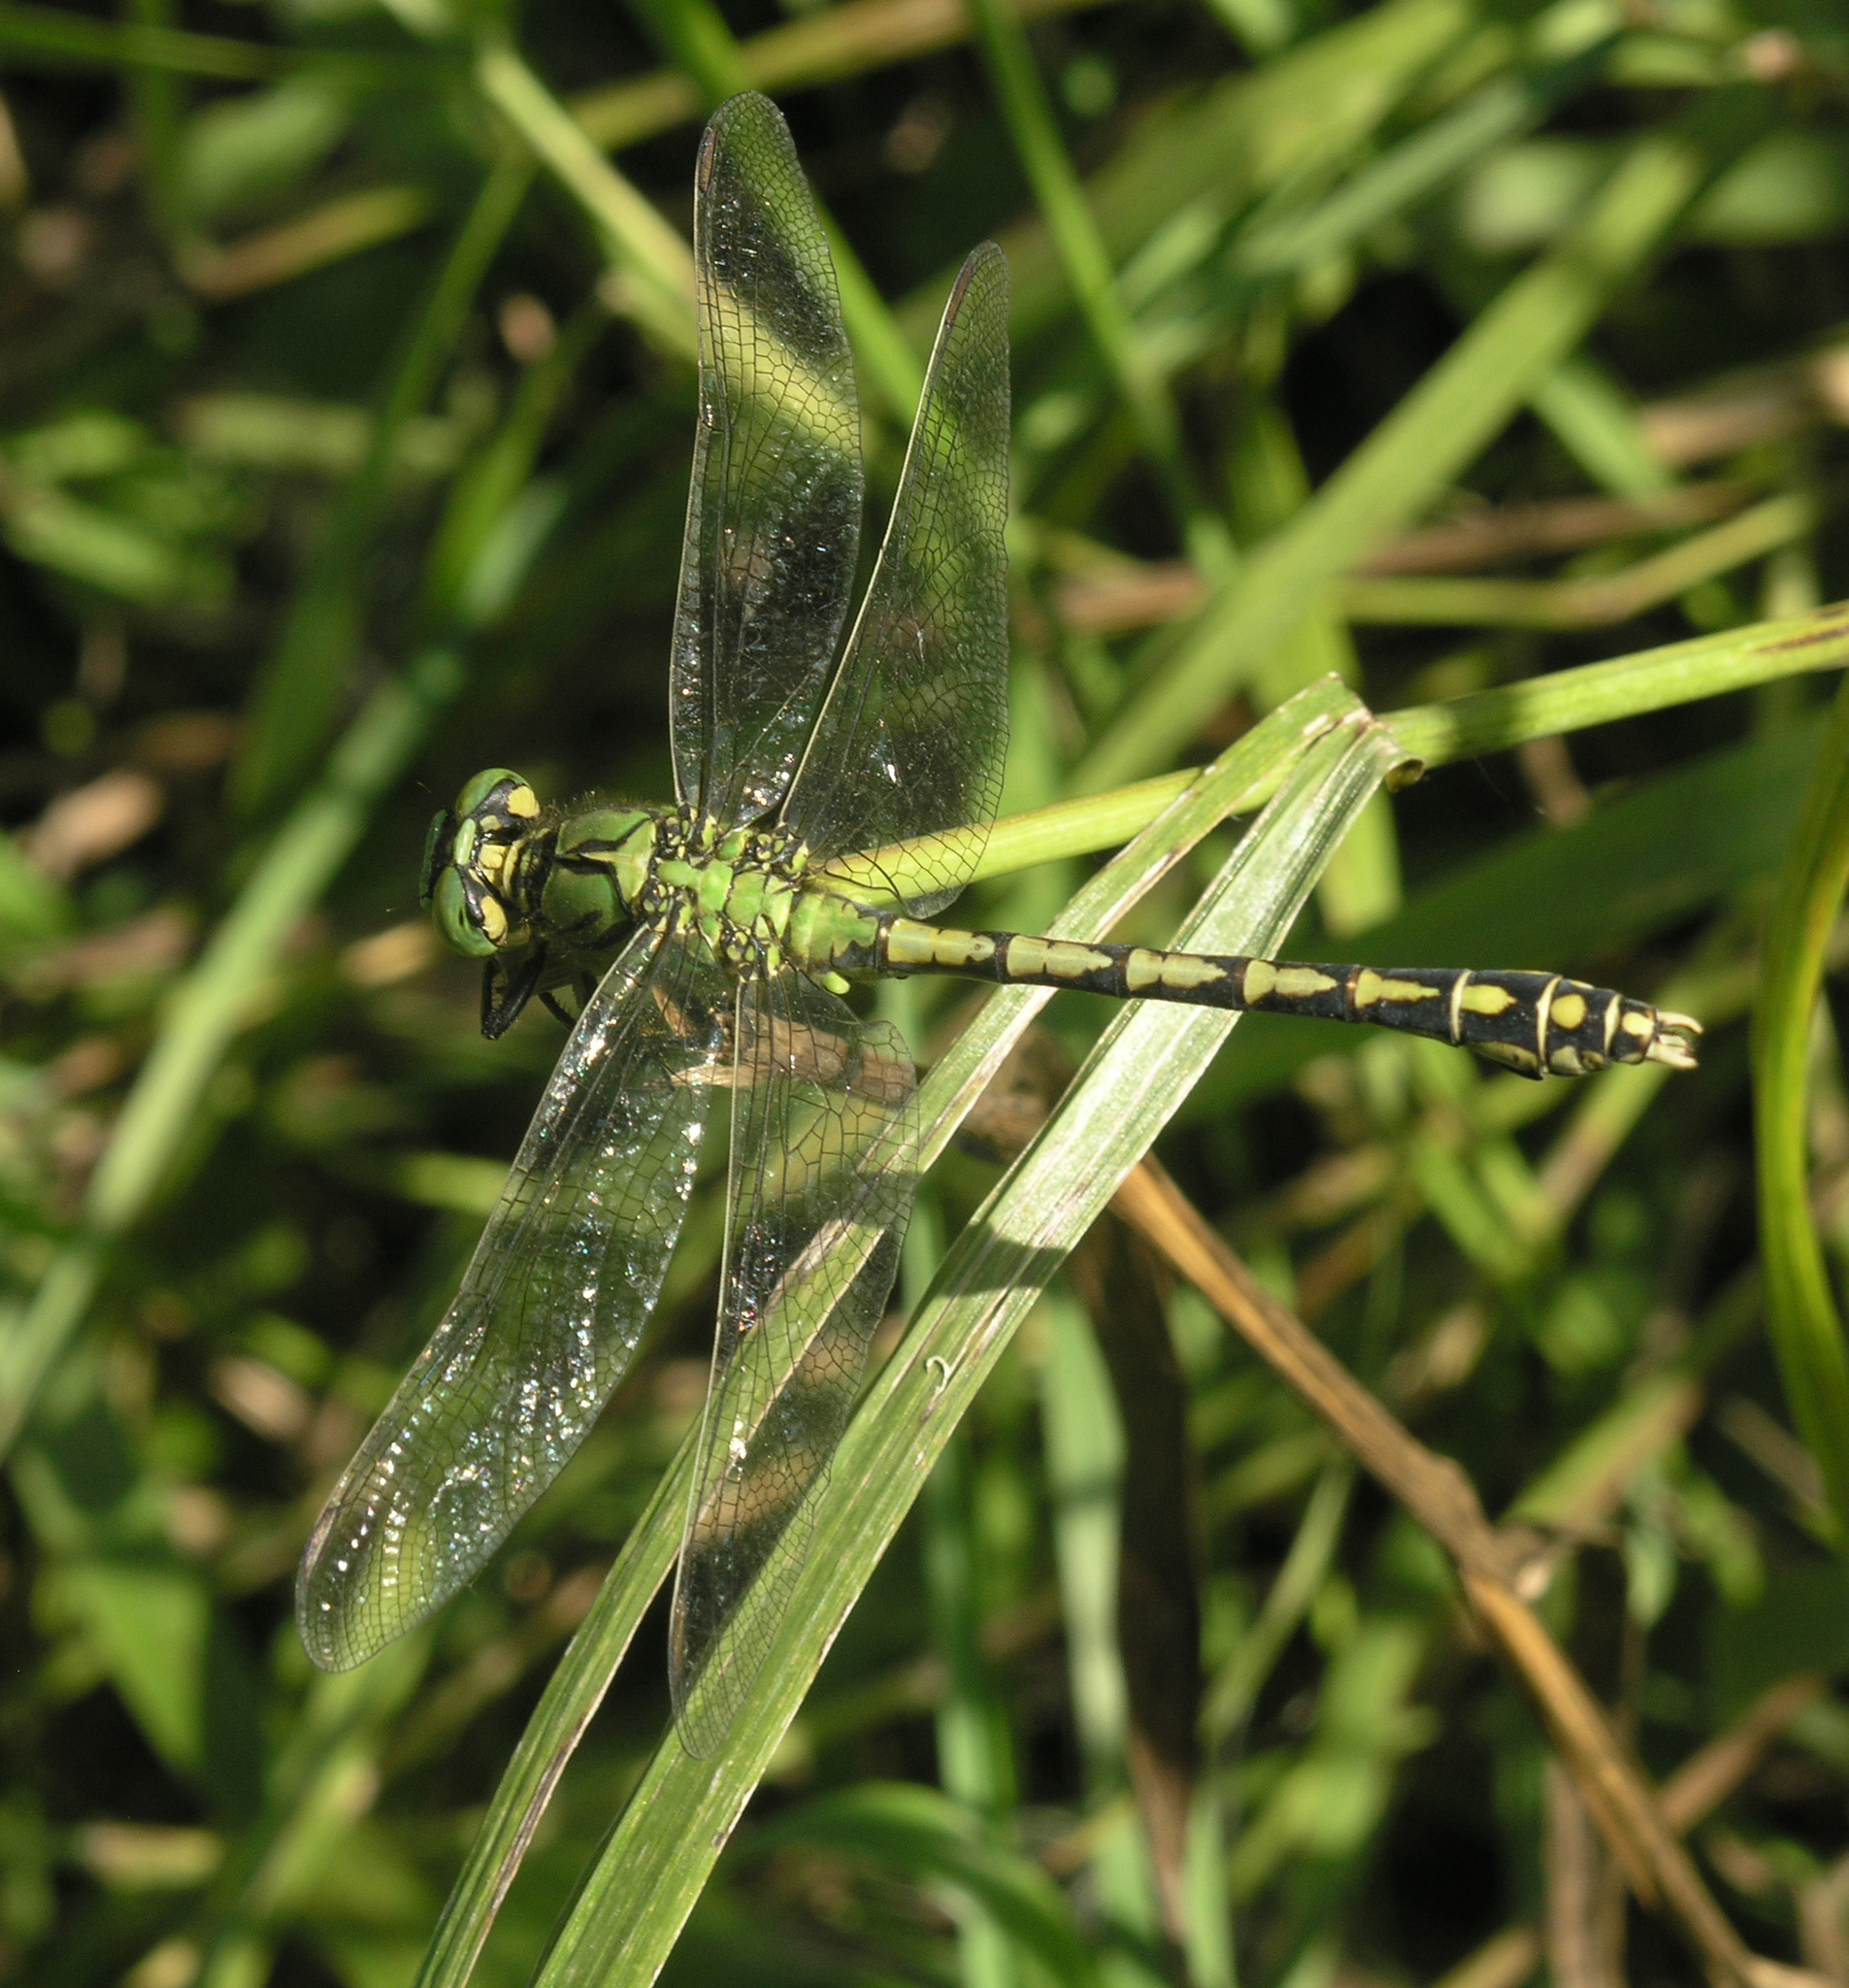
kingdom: Animalia
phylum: Arthropoda
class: Insecta
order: Odonata
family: Gomphidae
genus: Ophiogomphus
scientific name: Ophiogomphus cecilia
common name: Green snaketail
